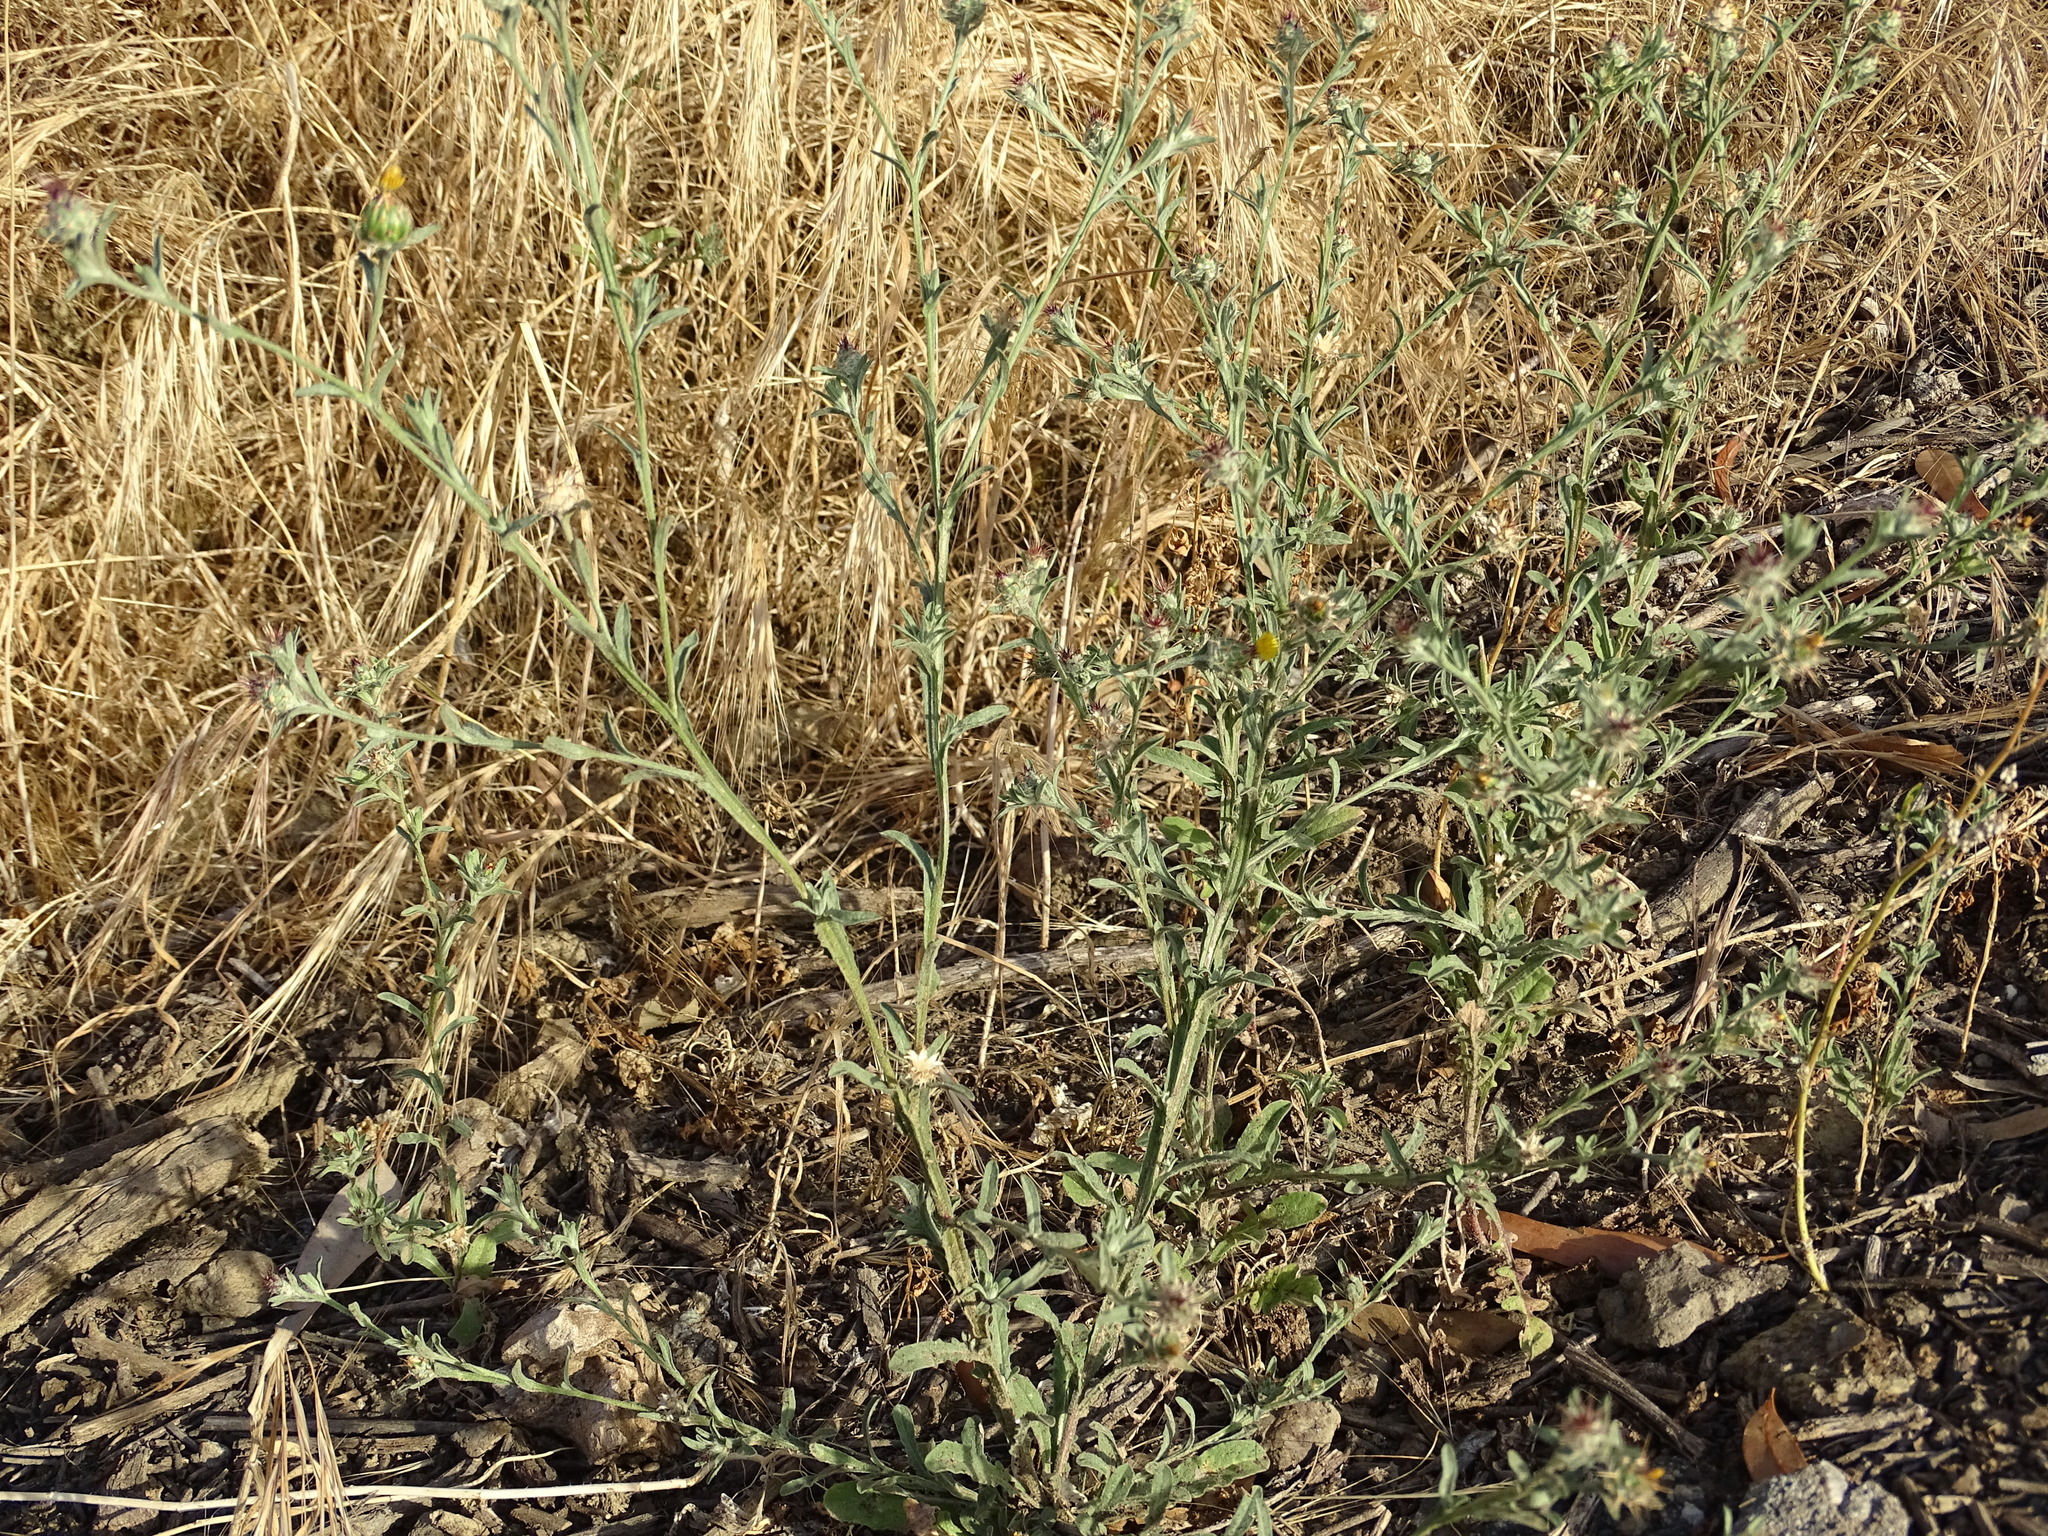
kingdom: Plantae
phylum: Tracheophyta
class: Magnoliopsida
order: Asterales
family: Asteraceae
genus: Centaurea
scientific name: Centaurea melitensis
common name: Maltese star-thistle
